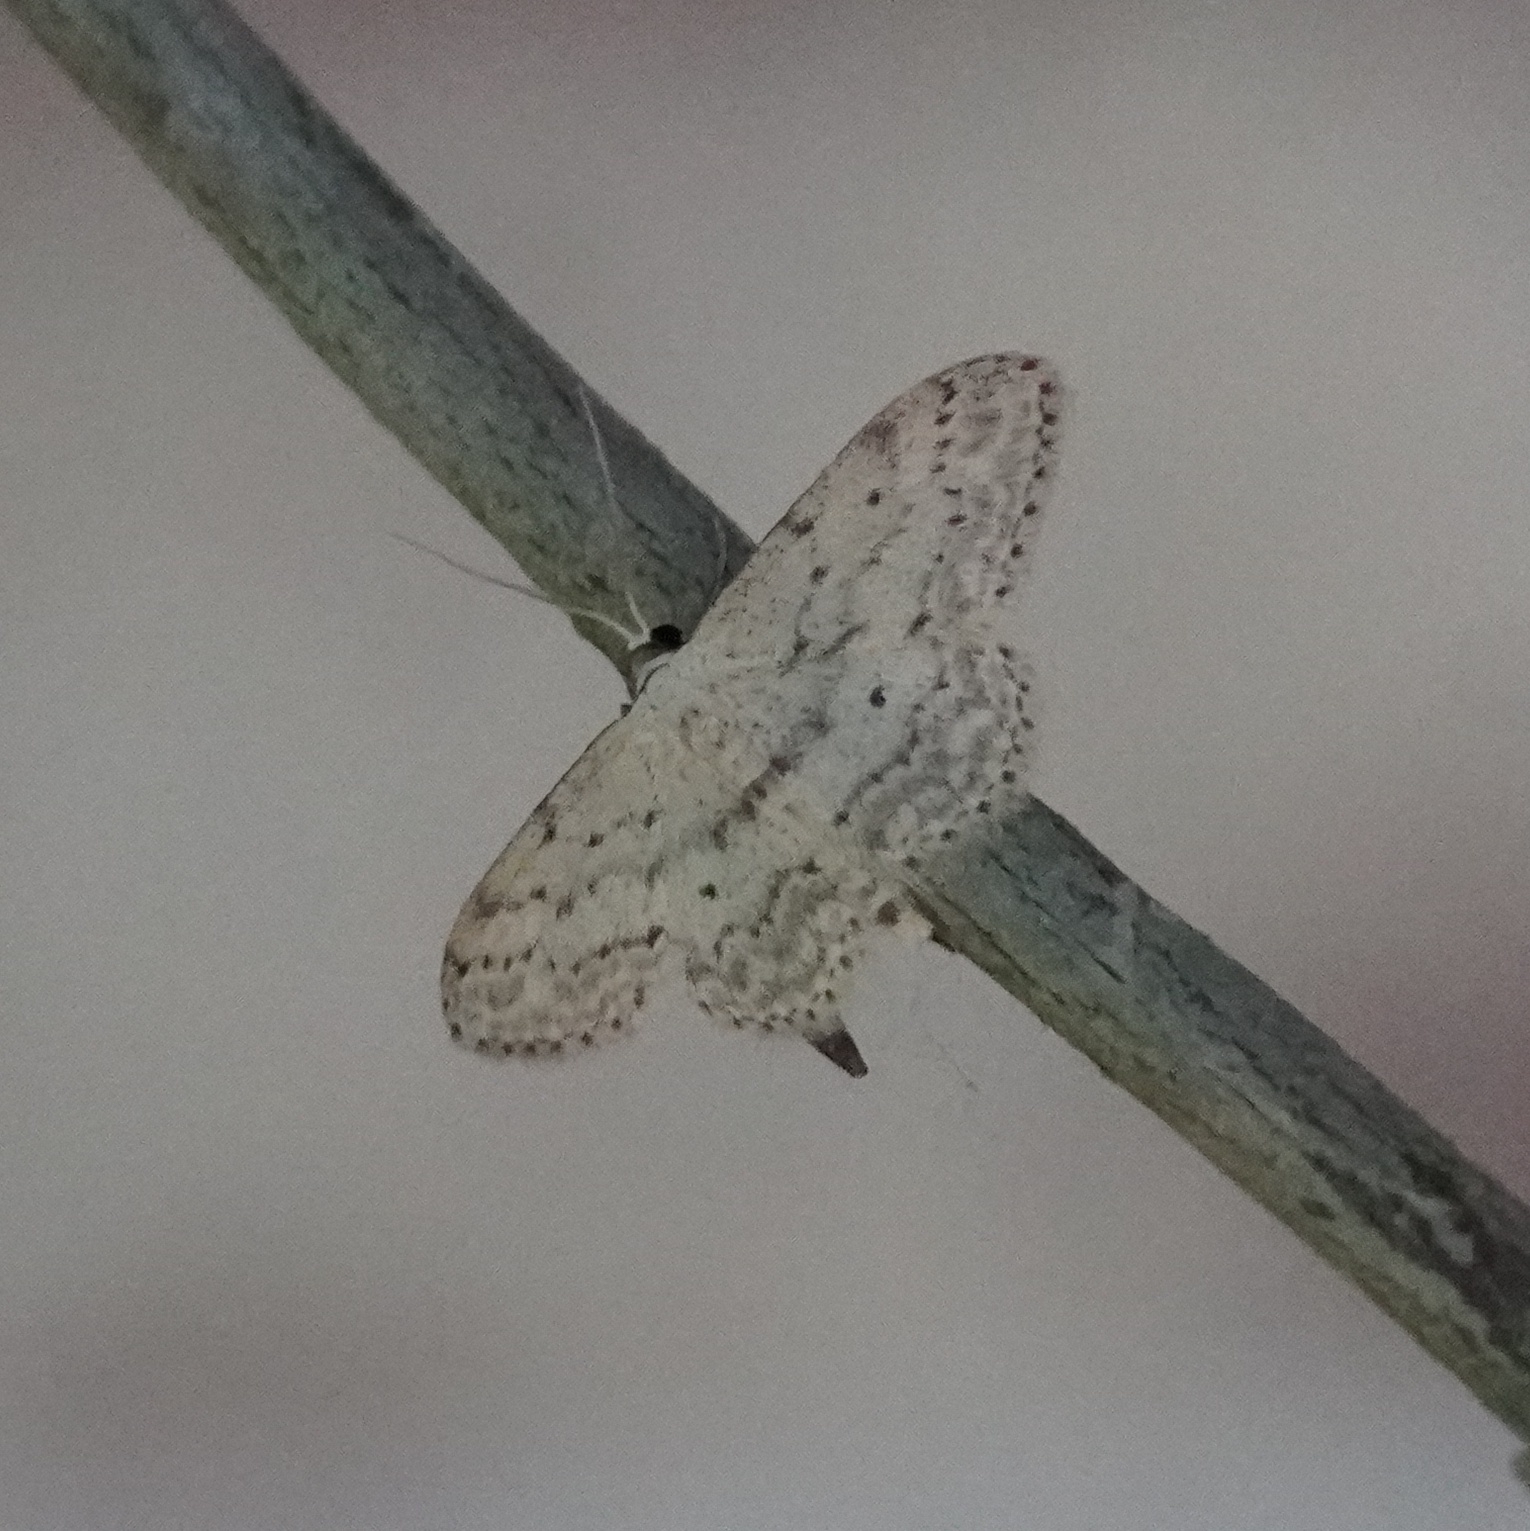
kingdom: Animalia
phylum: Arthropoda
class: Insecta
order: Lepidoptera
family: Geometridae
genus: Idaea
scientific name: Idaea seriata
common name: Small dusty wave
